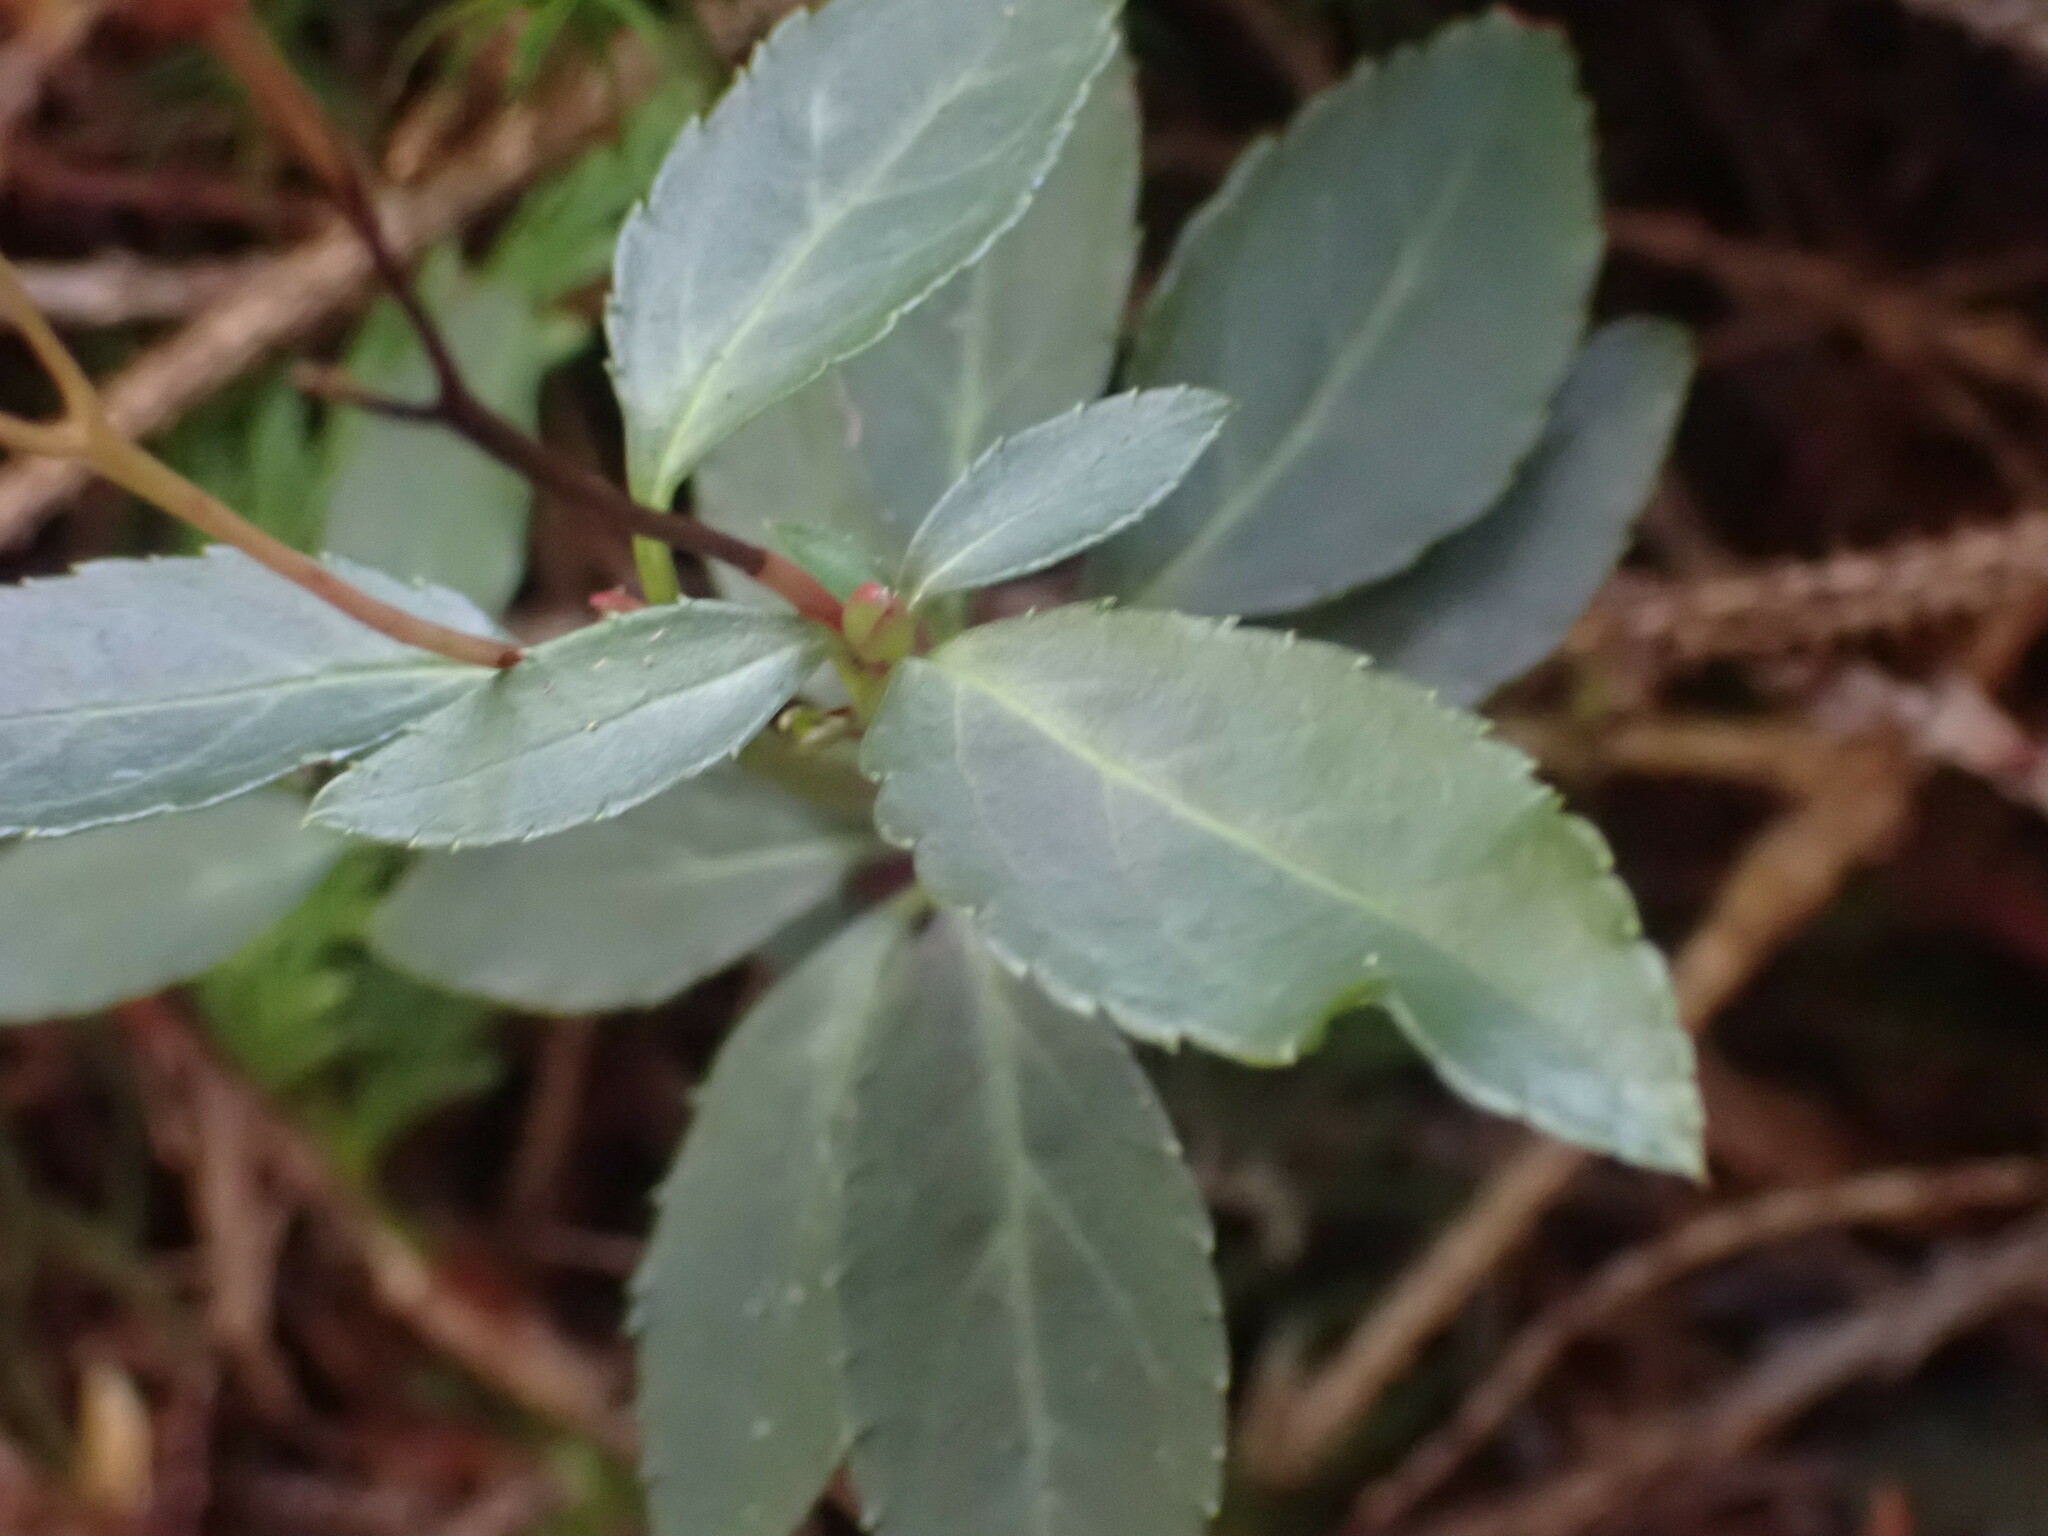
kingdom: Plantae
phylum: Tracheophyta
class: Magnoliopsida
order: Ericales
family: Ericaceae
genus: Chimaphila
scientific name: Chimaphila menziesii
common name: Menzies' pipsissewa
